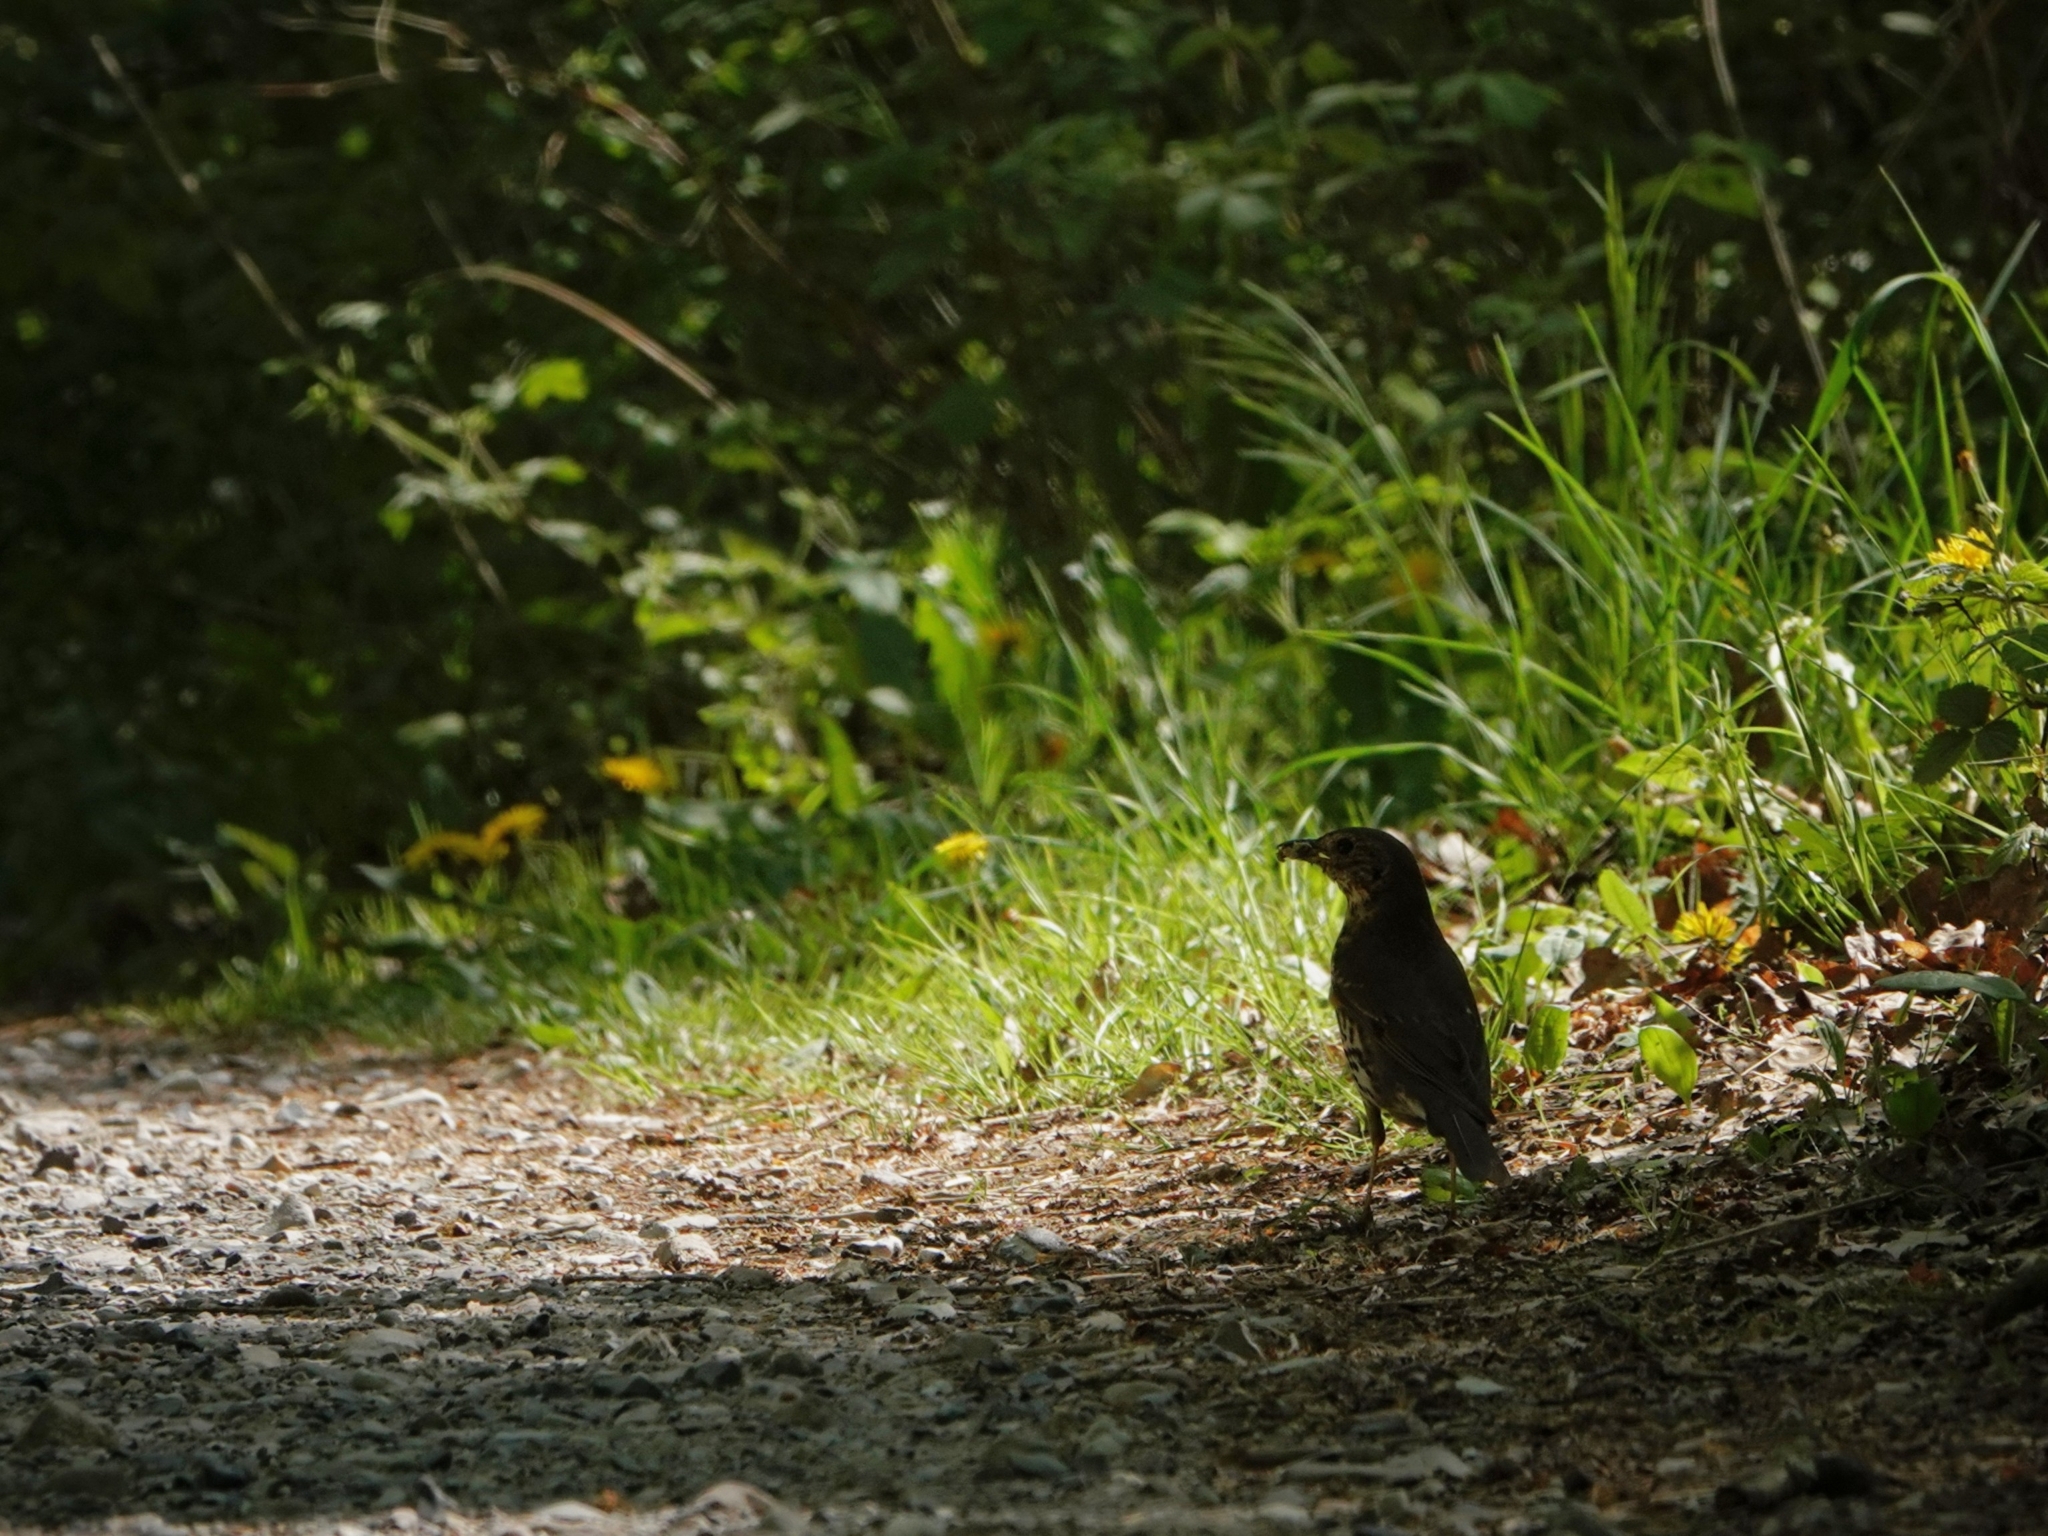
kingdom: Animalia
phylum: Chordata
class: Aves
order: Passeriformes
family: Turdidae
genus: Turdus
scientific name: Turdus philomelos
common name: Song thrush
